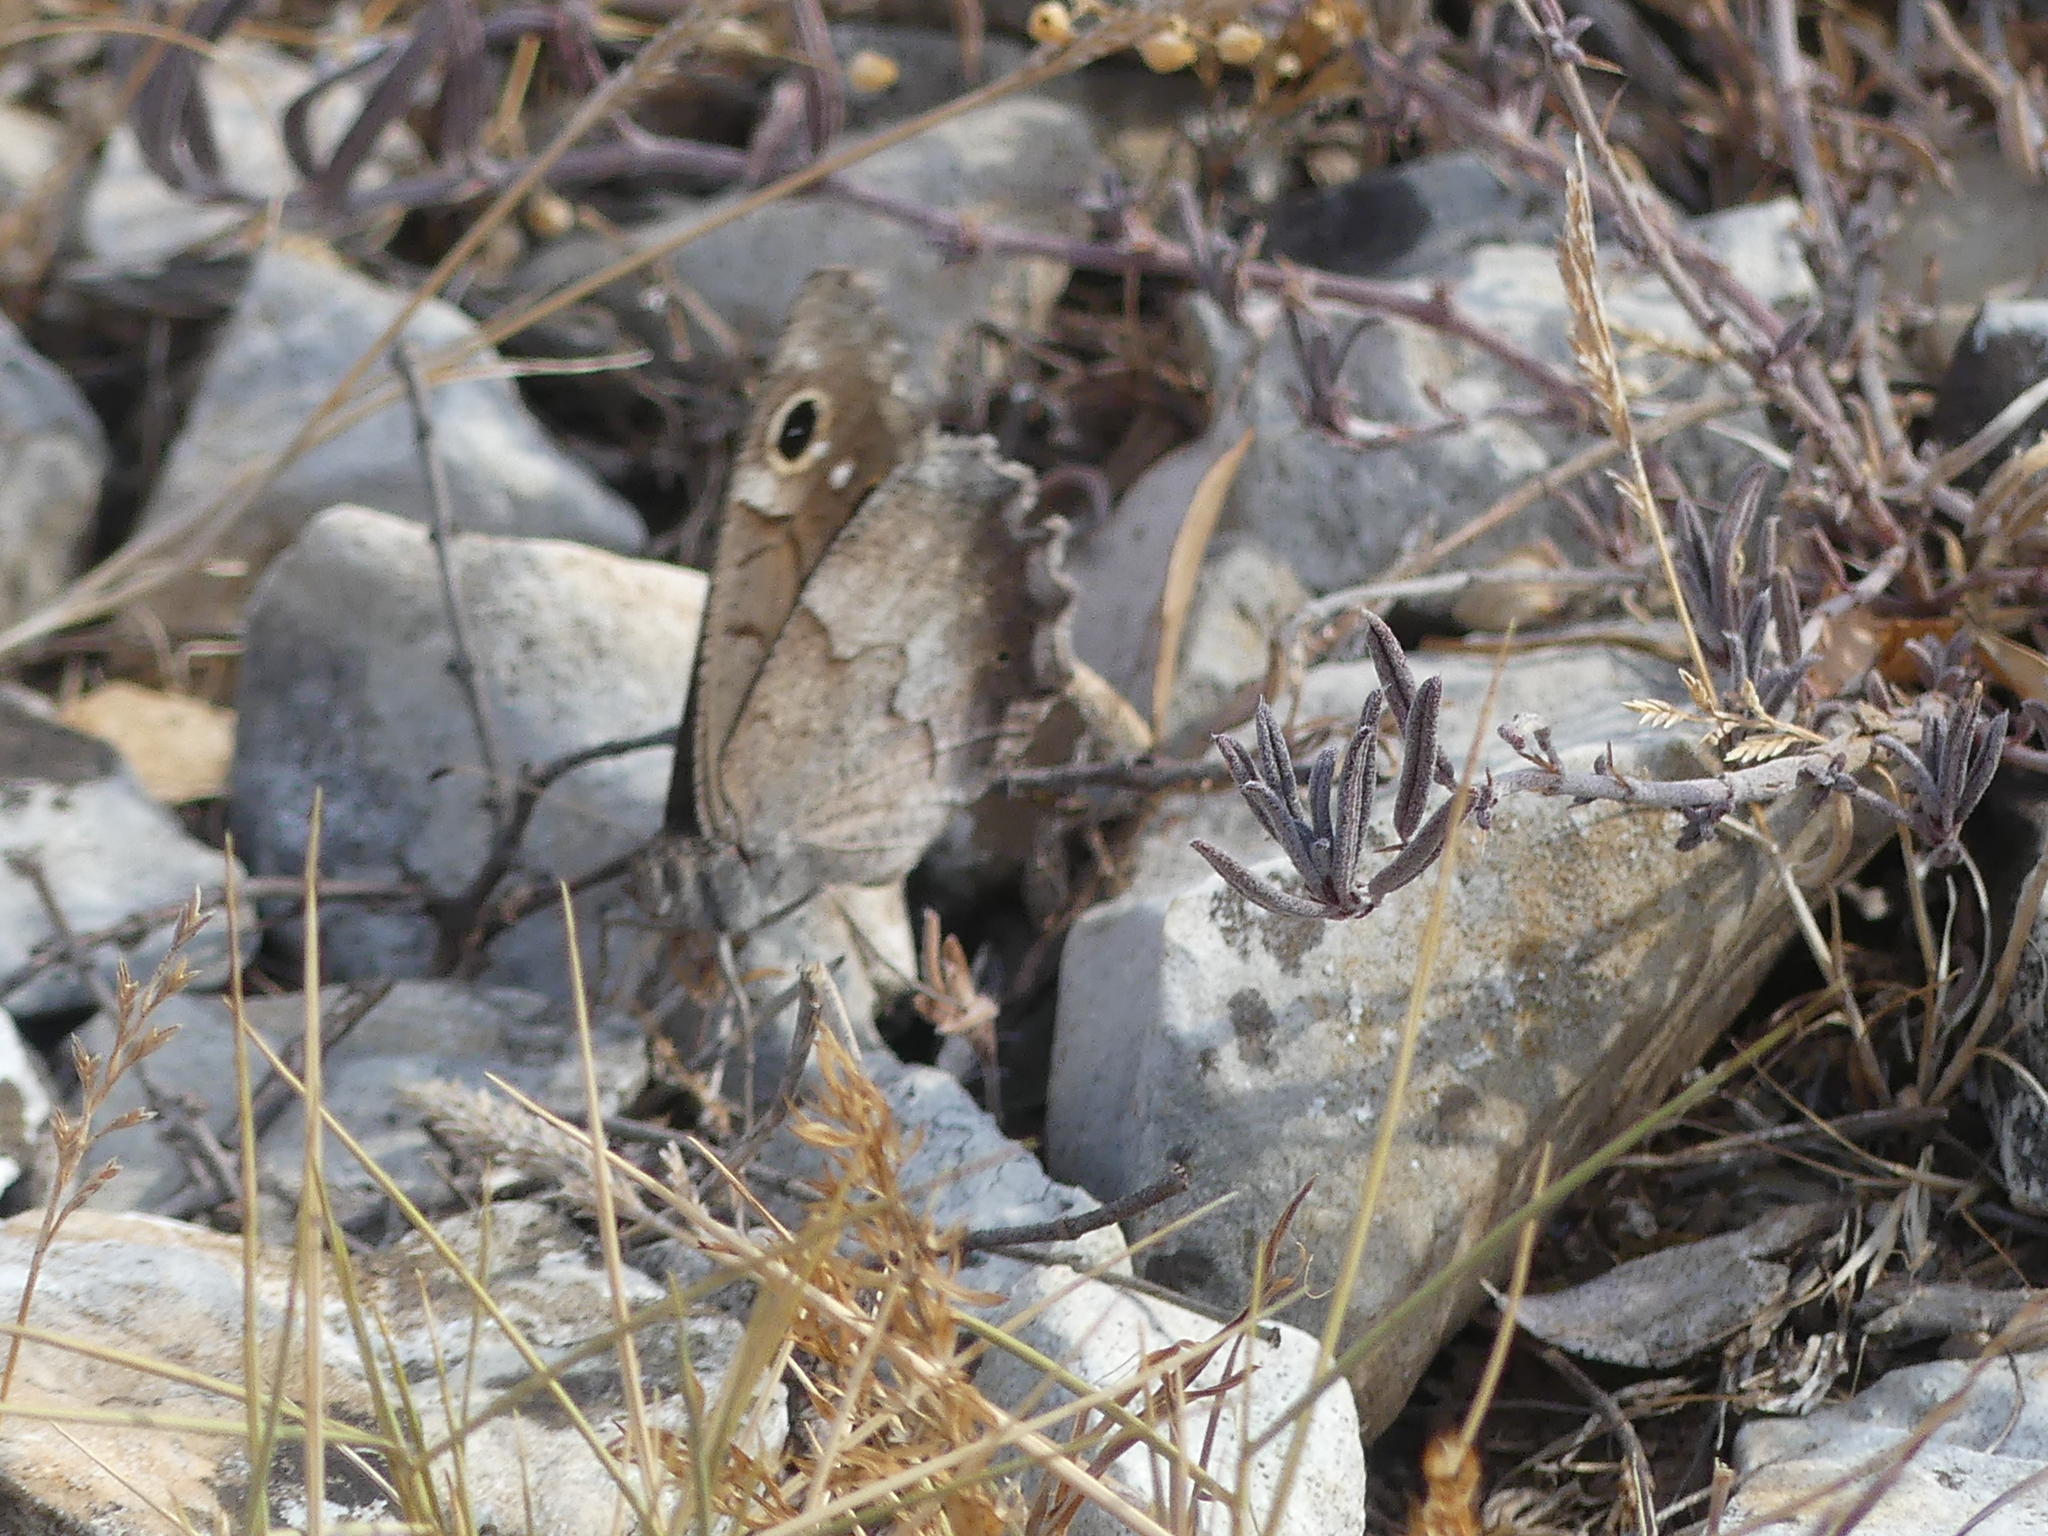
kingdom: Animalia
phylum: Arthropoda
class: Insecta
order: Lepidoptera
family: Nymphalidae
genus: Hipparchia
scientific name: Hipparchia statilinus
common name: Tree grayling
